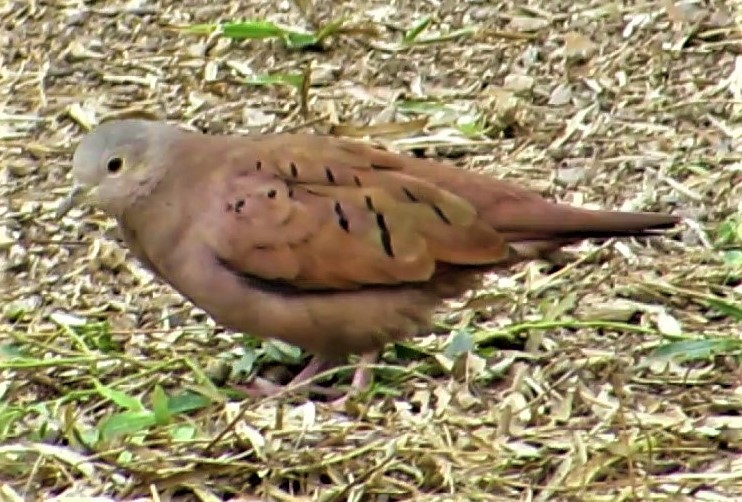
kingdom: Animalia
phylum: Chordata
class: Aves
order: Columbiformes
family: Columbidae
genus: Columbina
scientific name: Columbina talpacoti
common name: Ruddy ground dove
